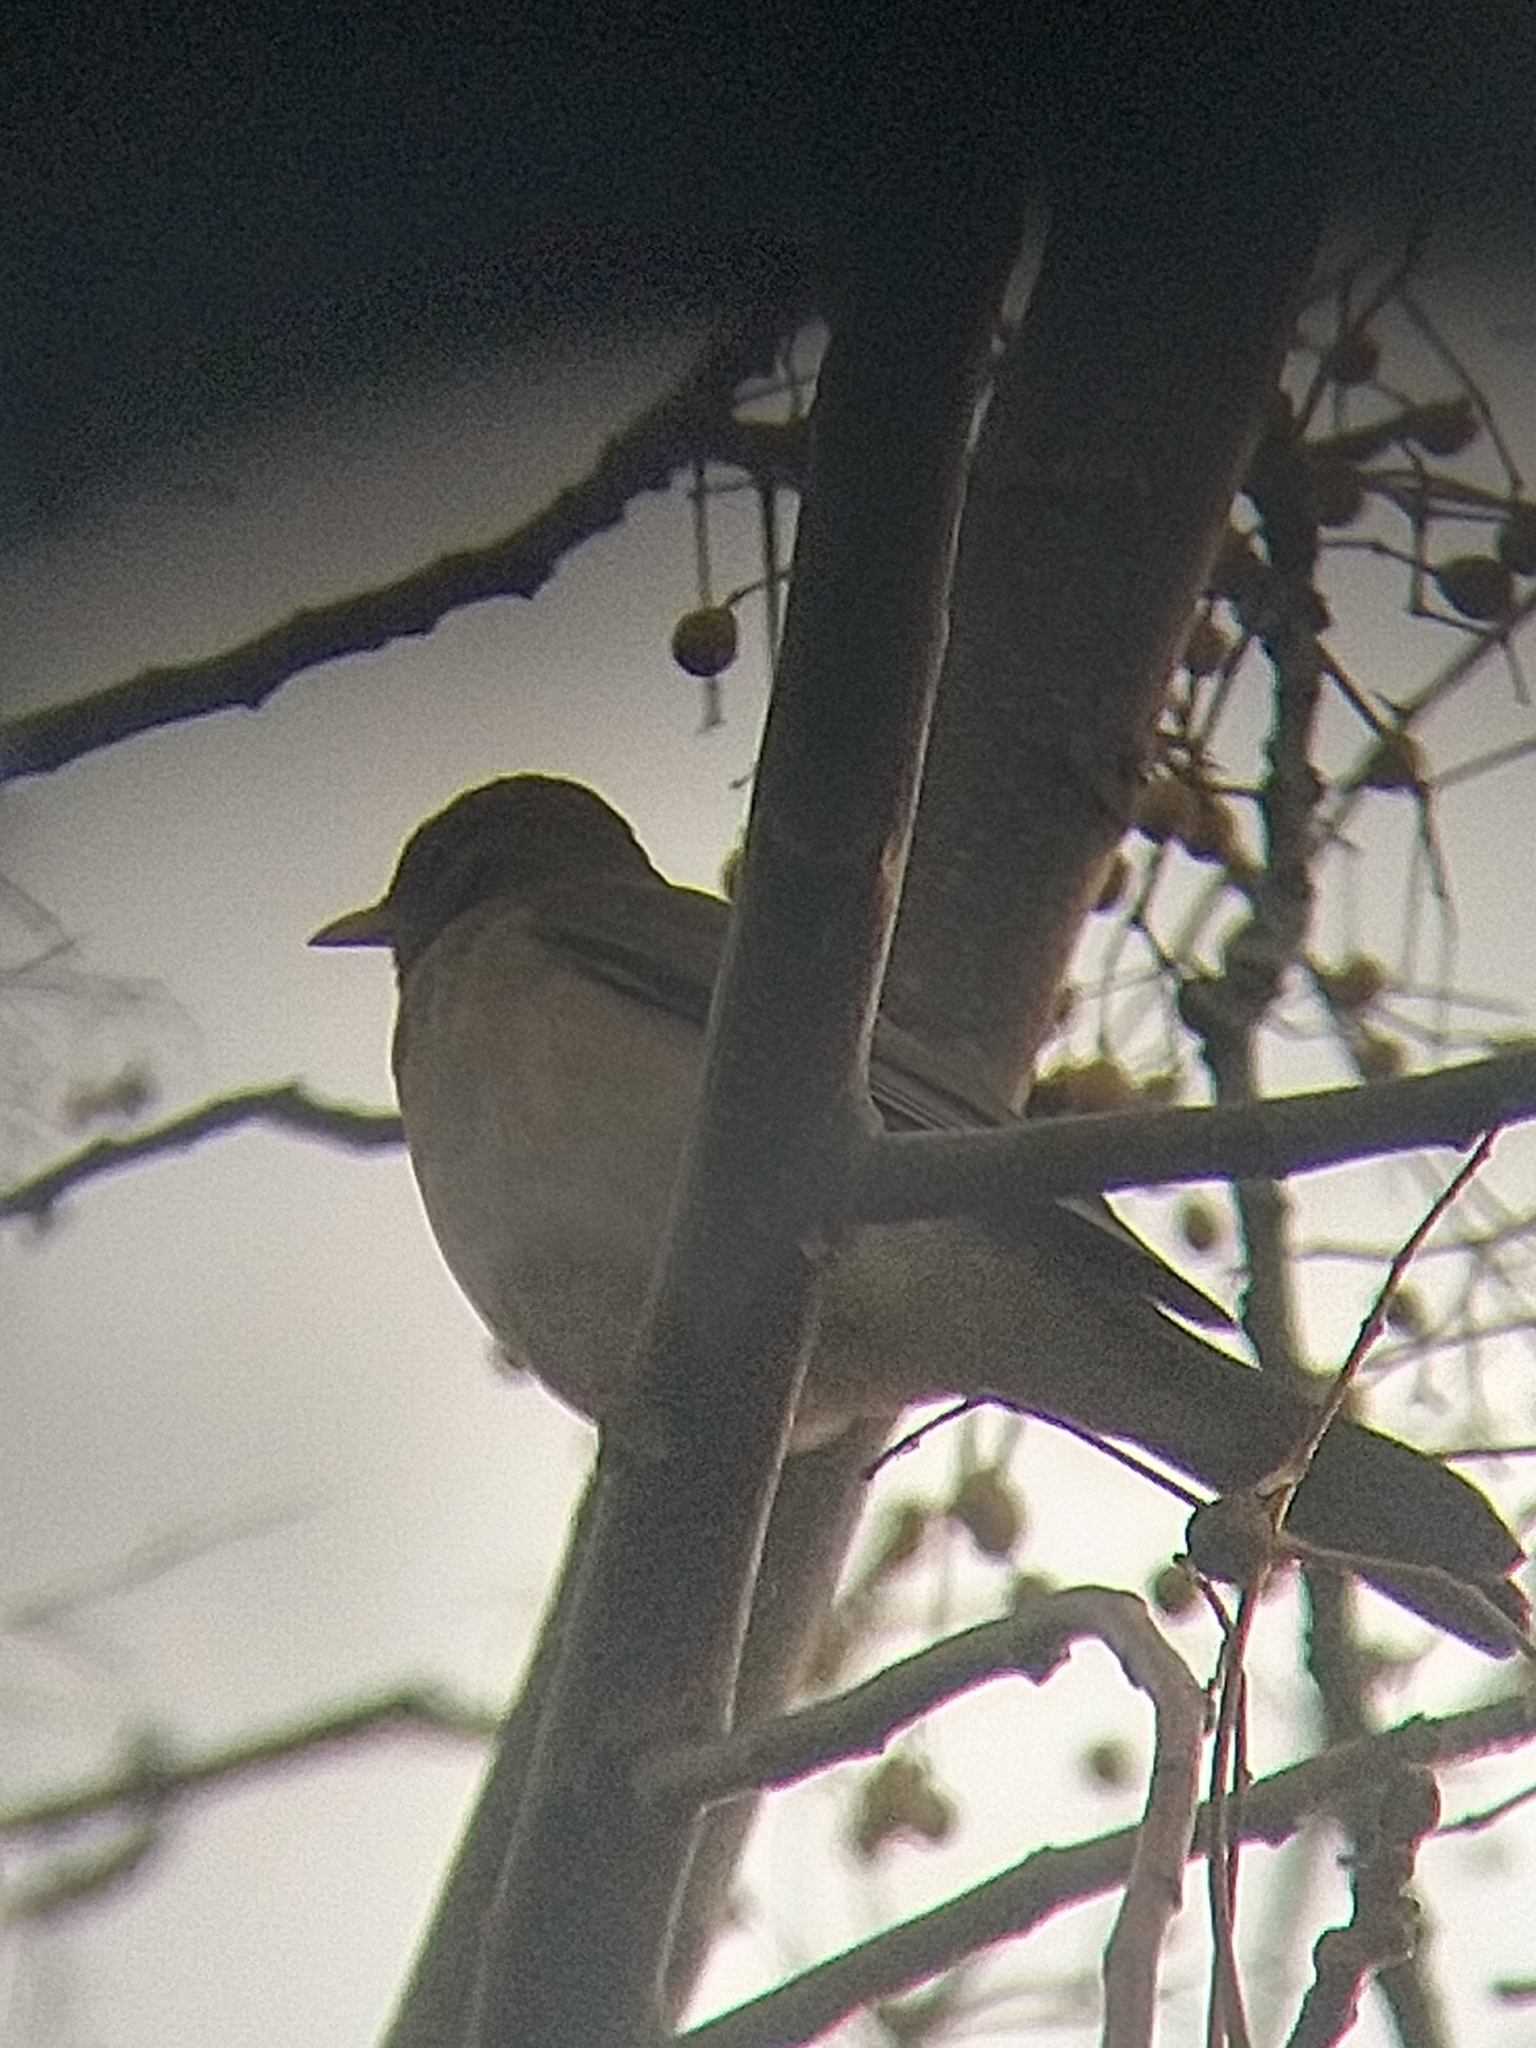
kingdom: Animalia
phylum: Chordata
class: Aves
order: Passeriformes
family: Turdidae
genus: Turdus
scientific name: Turdus amaurochalinus
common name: Creamy-bellied thrush
